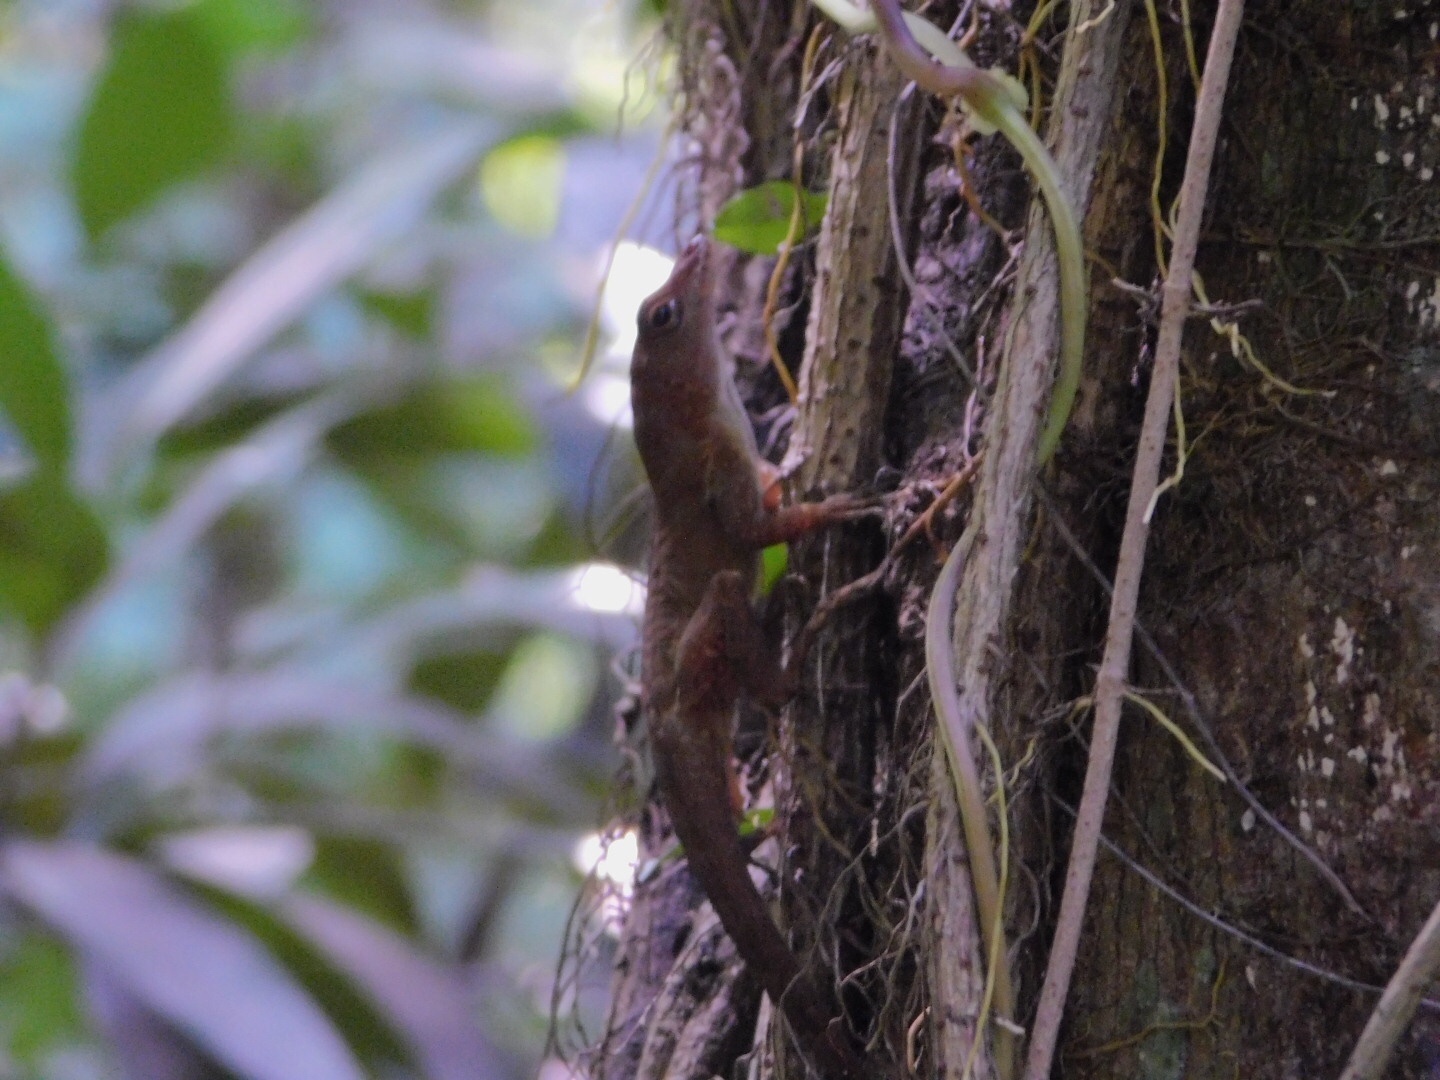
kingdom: Animalia
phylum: Chordata
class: Squamata
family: Dactyloidae
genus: Anolis
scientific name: Anolis cristatellus
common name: Crested anole
